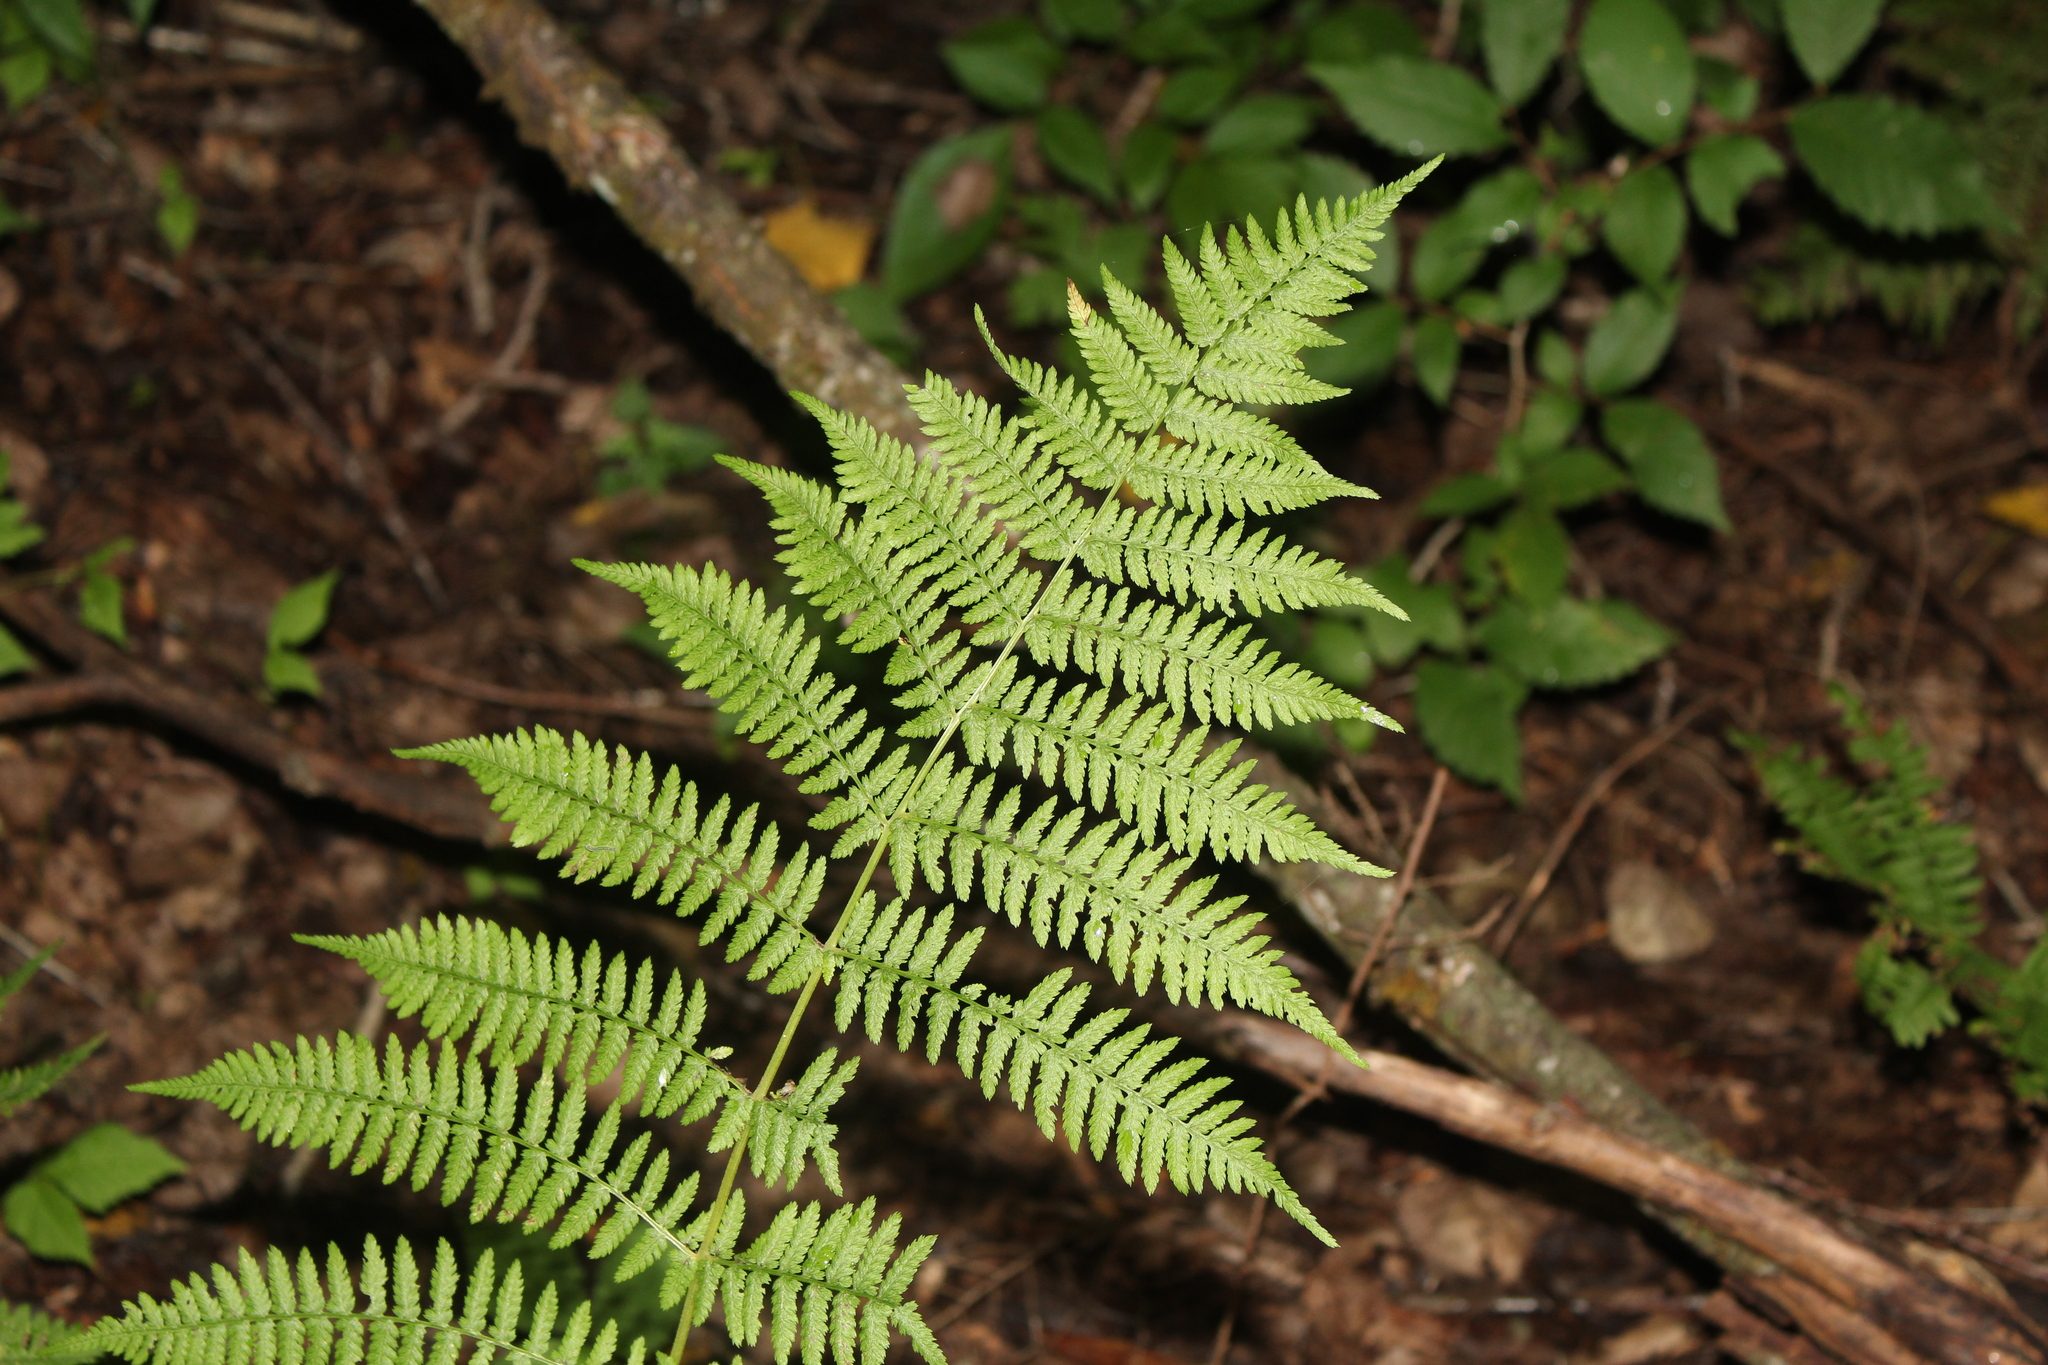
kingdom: Plantae
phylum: Tracheophyta
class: Polypodiopsida
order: Polypodiales
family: Athyriaceae
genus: Athyrium
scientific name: Athyrium angustum
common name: Northern lady fern
